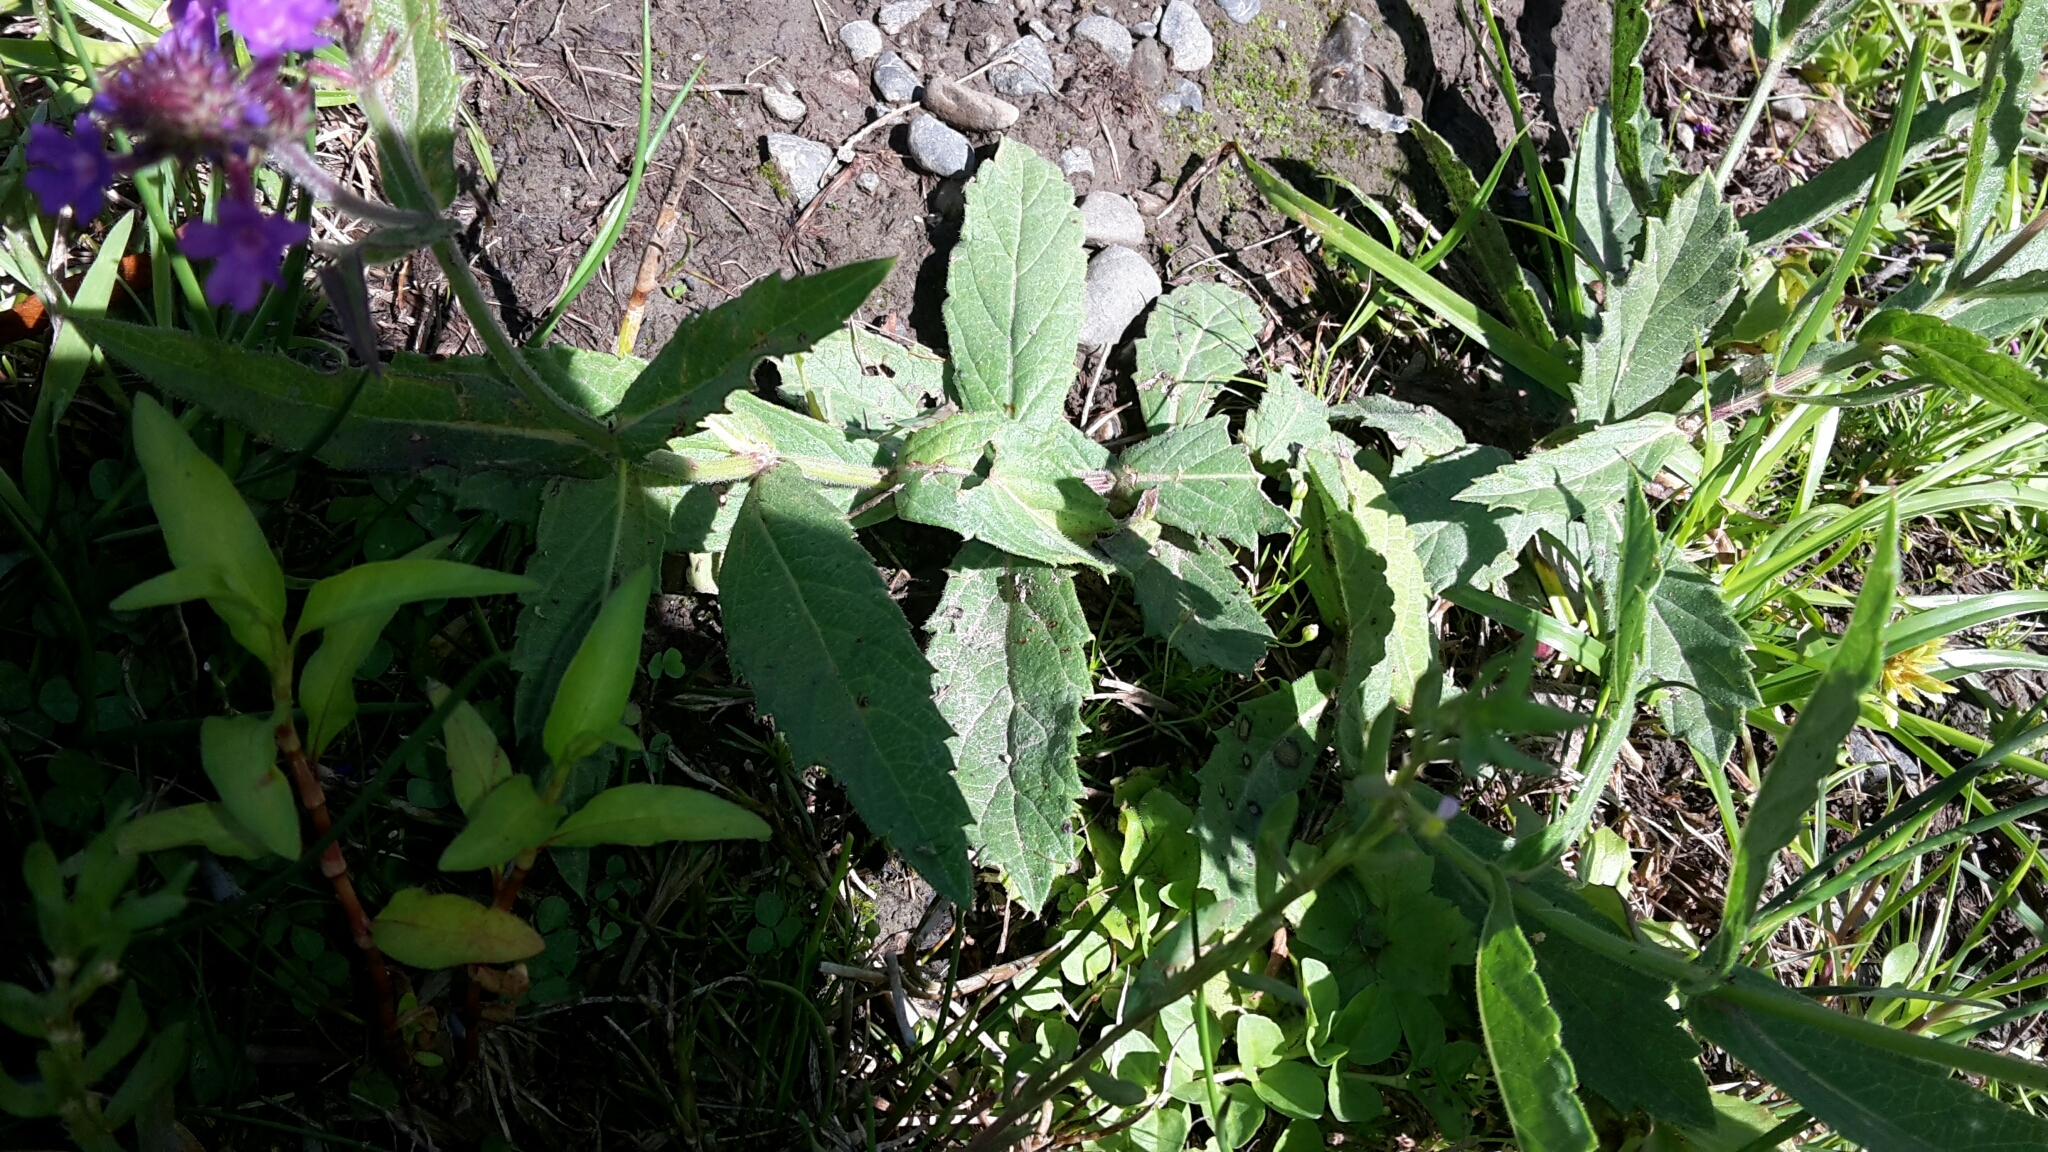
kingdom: Plantae
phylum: Tracheophyta
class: Magnoliopsida
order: Lamiales
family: Verbenaceae
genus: Verbena
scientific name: Verbena rigida
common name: Slender vervain
